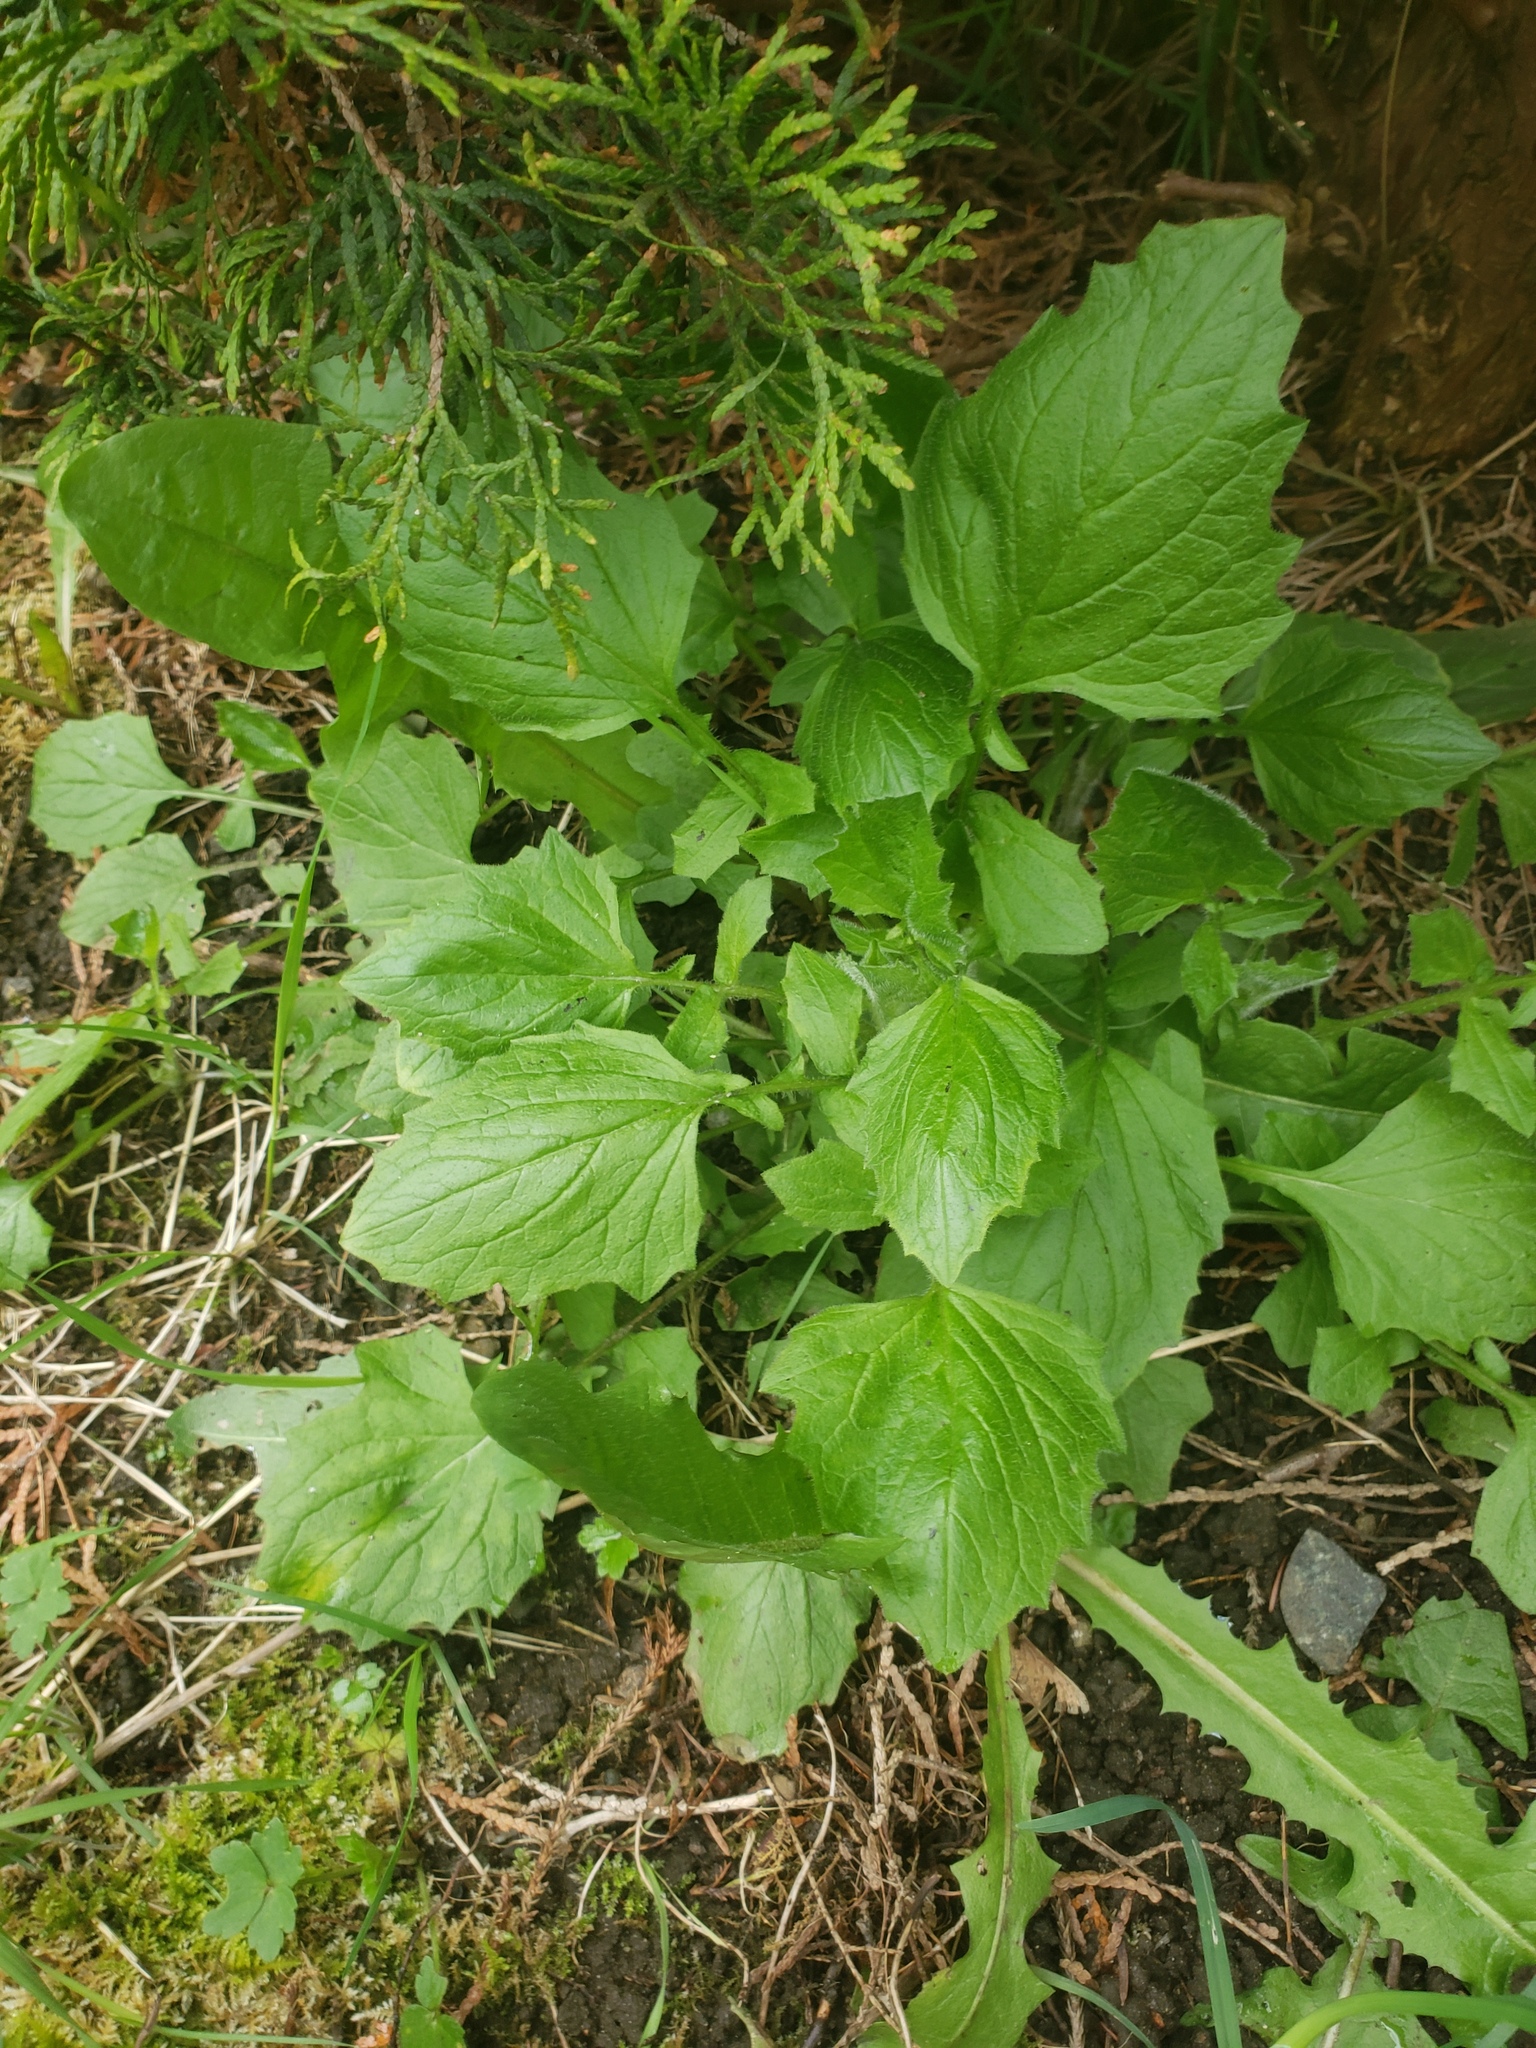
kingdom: Plantae
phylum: Tracheophyta
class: Magnoliopsida
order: Asterales
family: Asteraceae
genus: Lapsana
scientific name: Lapsana communis
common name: Nipplewort
